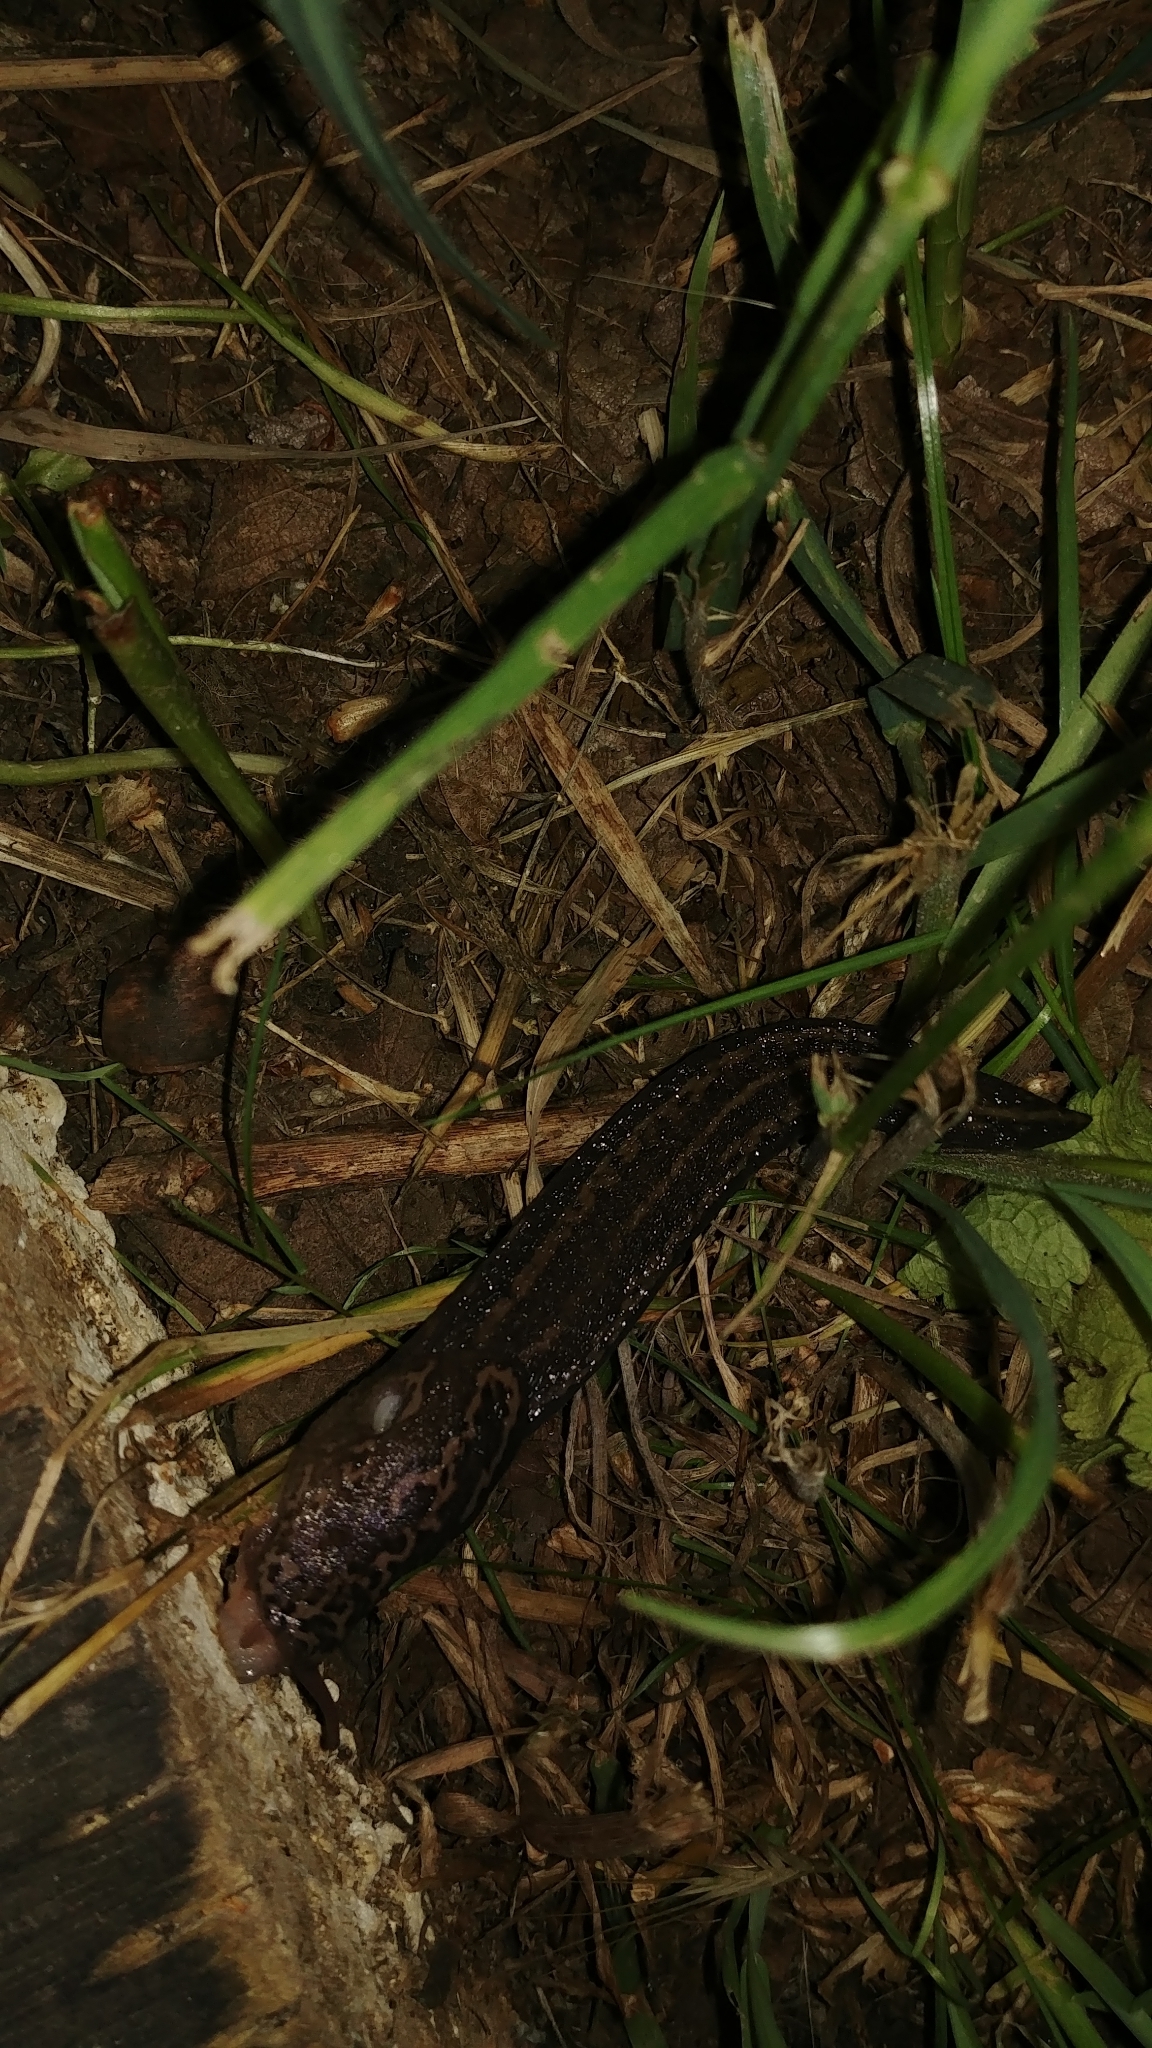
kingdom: Animalia
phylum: Mollusca
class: Gastropoda
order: Stylommatophora
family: Limacidae
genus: Limax
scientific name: Limax maximus
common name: Great grey slug
